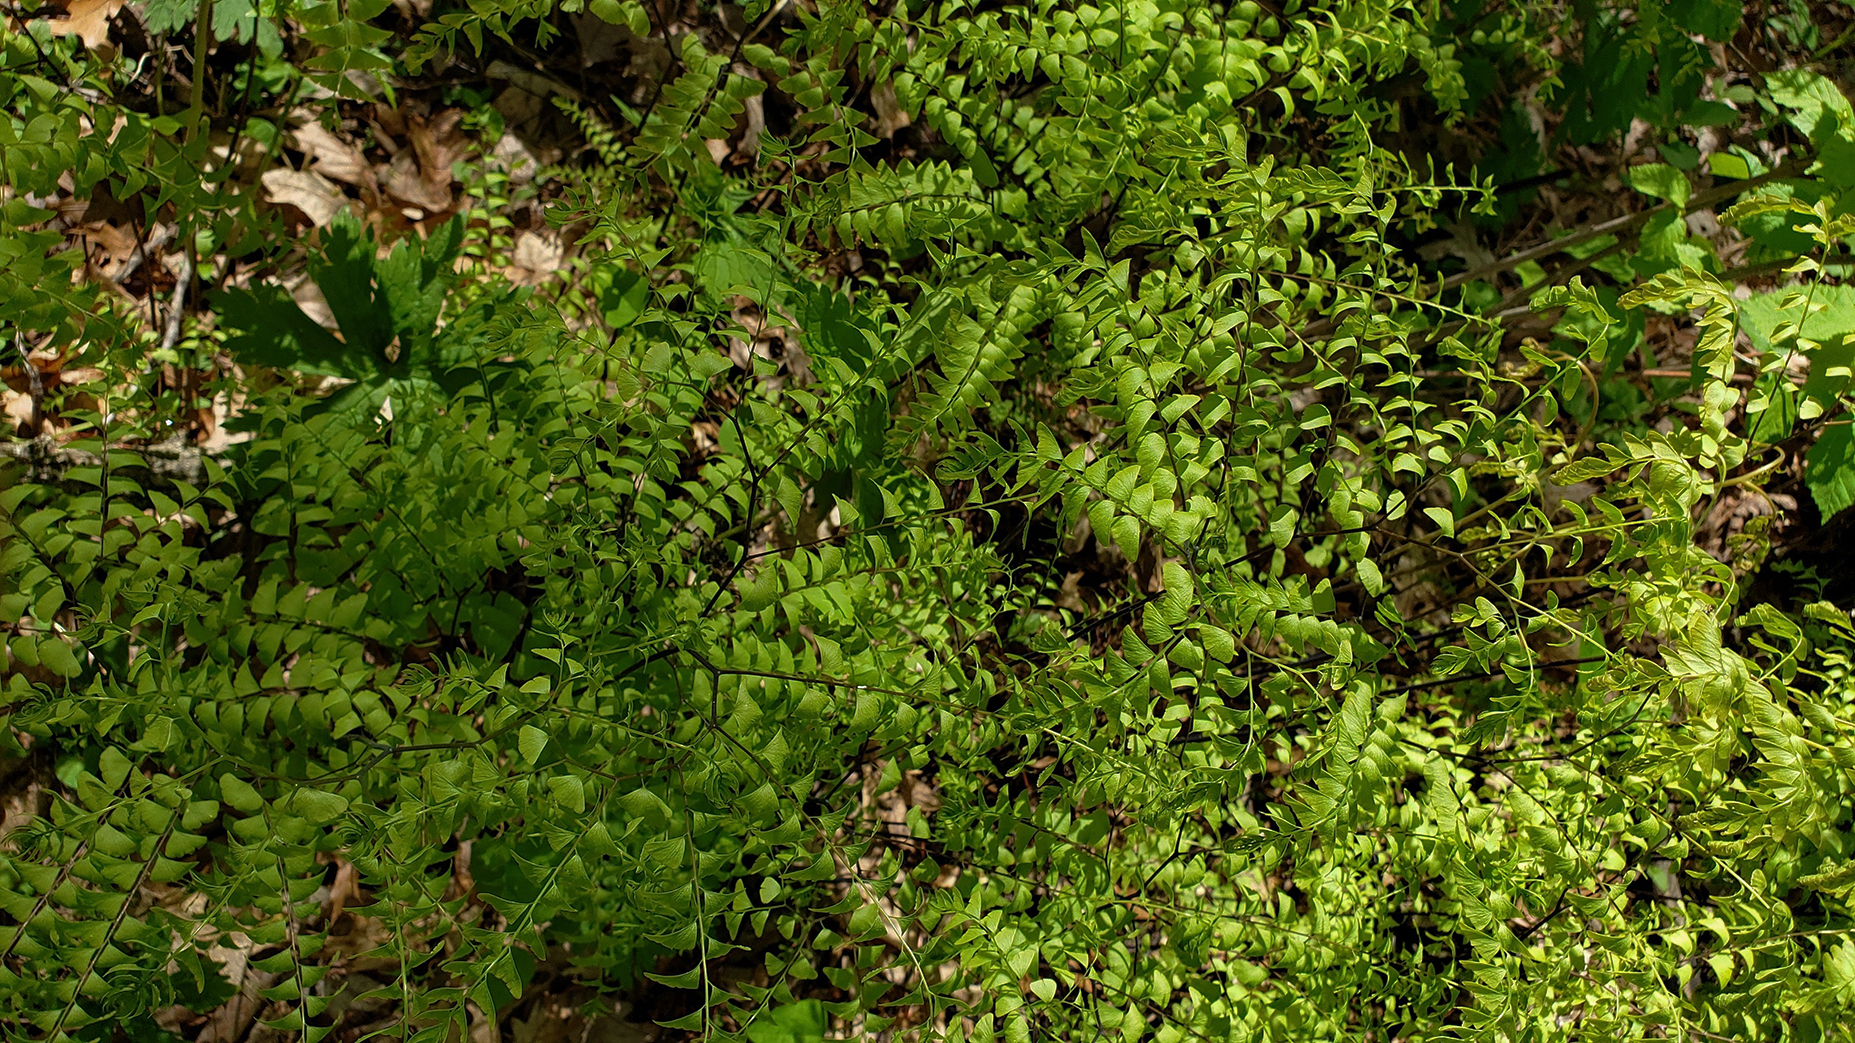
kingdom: Plantae
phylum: Tracheophyta
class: Polypodiopsida
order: Polypodiales
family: Pteridaceae
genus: Adiantum
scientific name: Adiantum pedatum
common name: Five-finger fern
